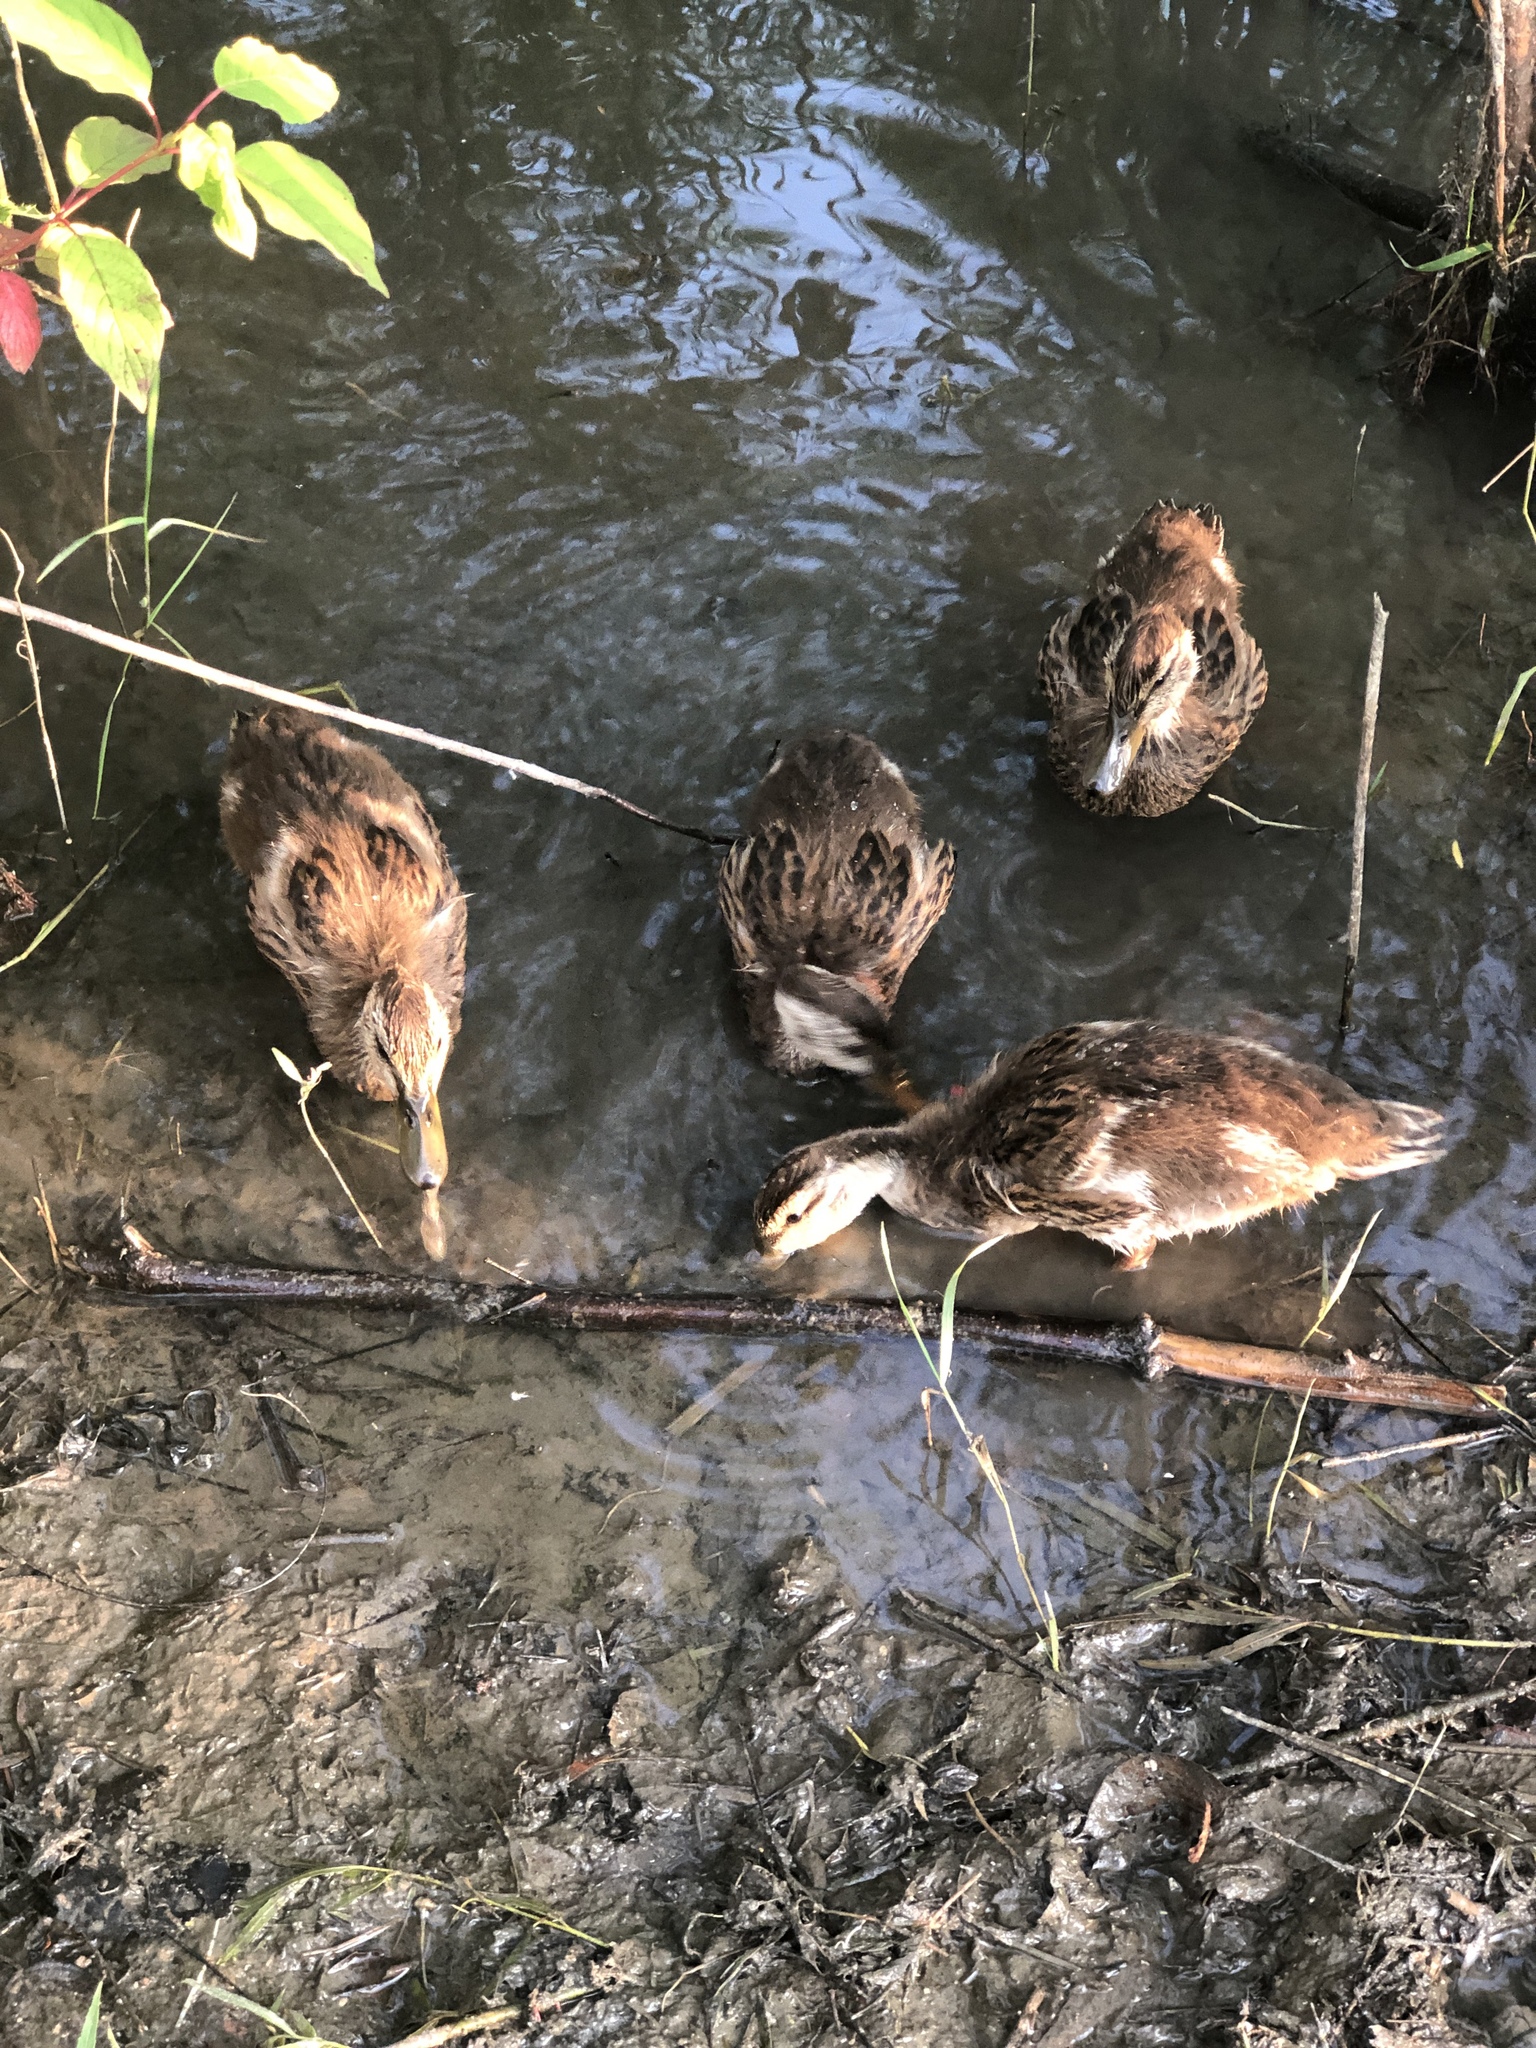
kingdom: Animalia
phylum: Chordata
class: Aves
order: Anseriformes
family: Anatidae
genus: Anas
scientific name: Anas platyrhynchos
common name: Mallard
